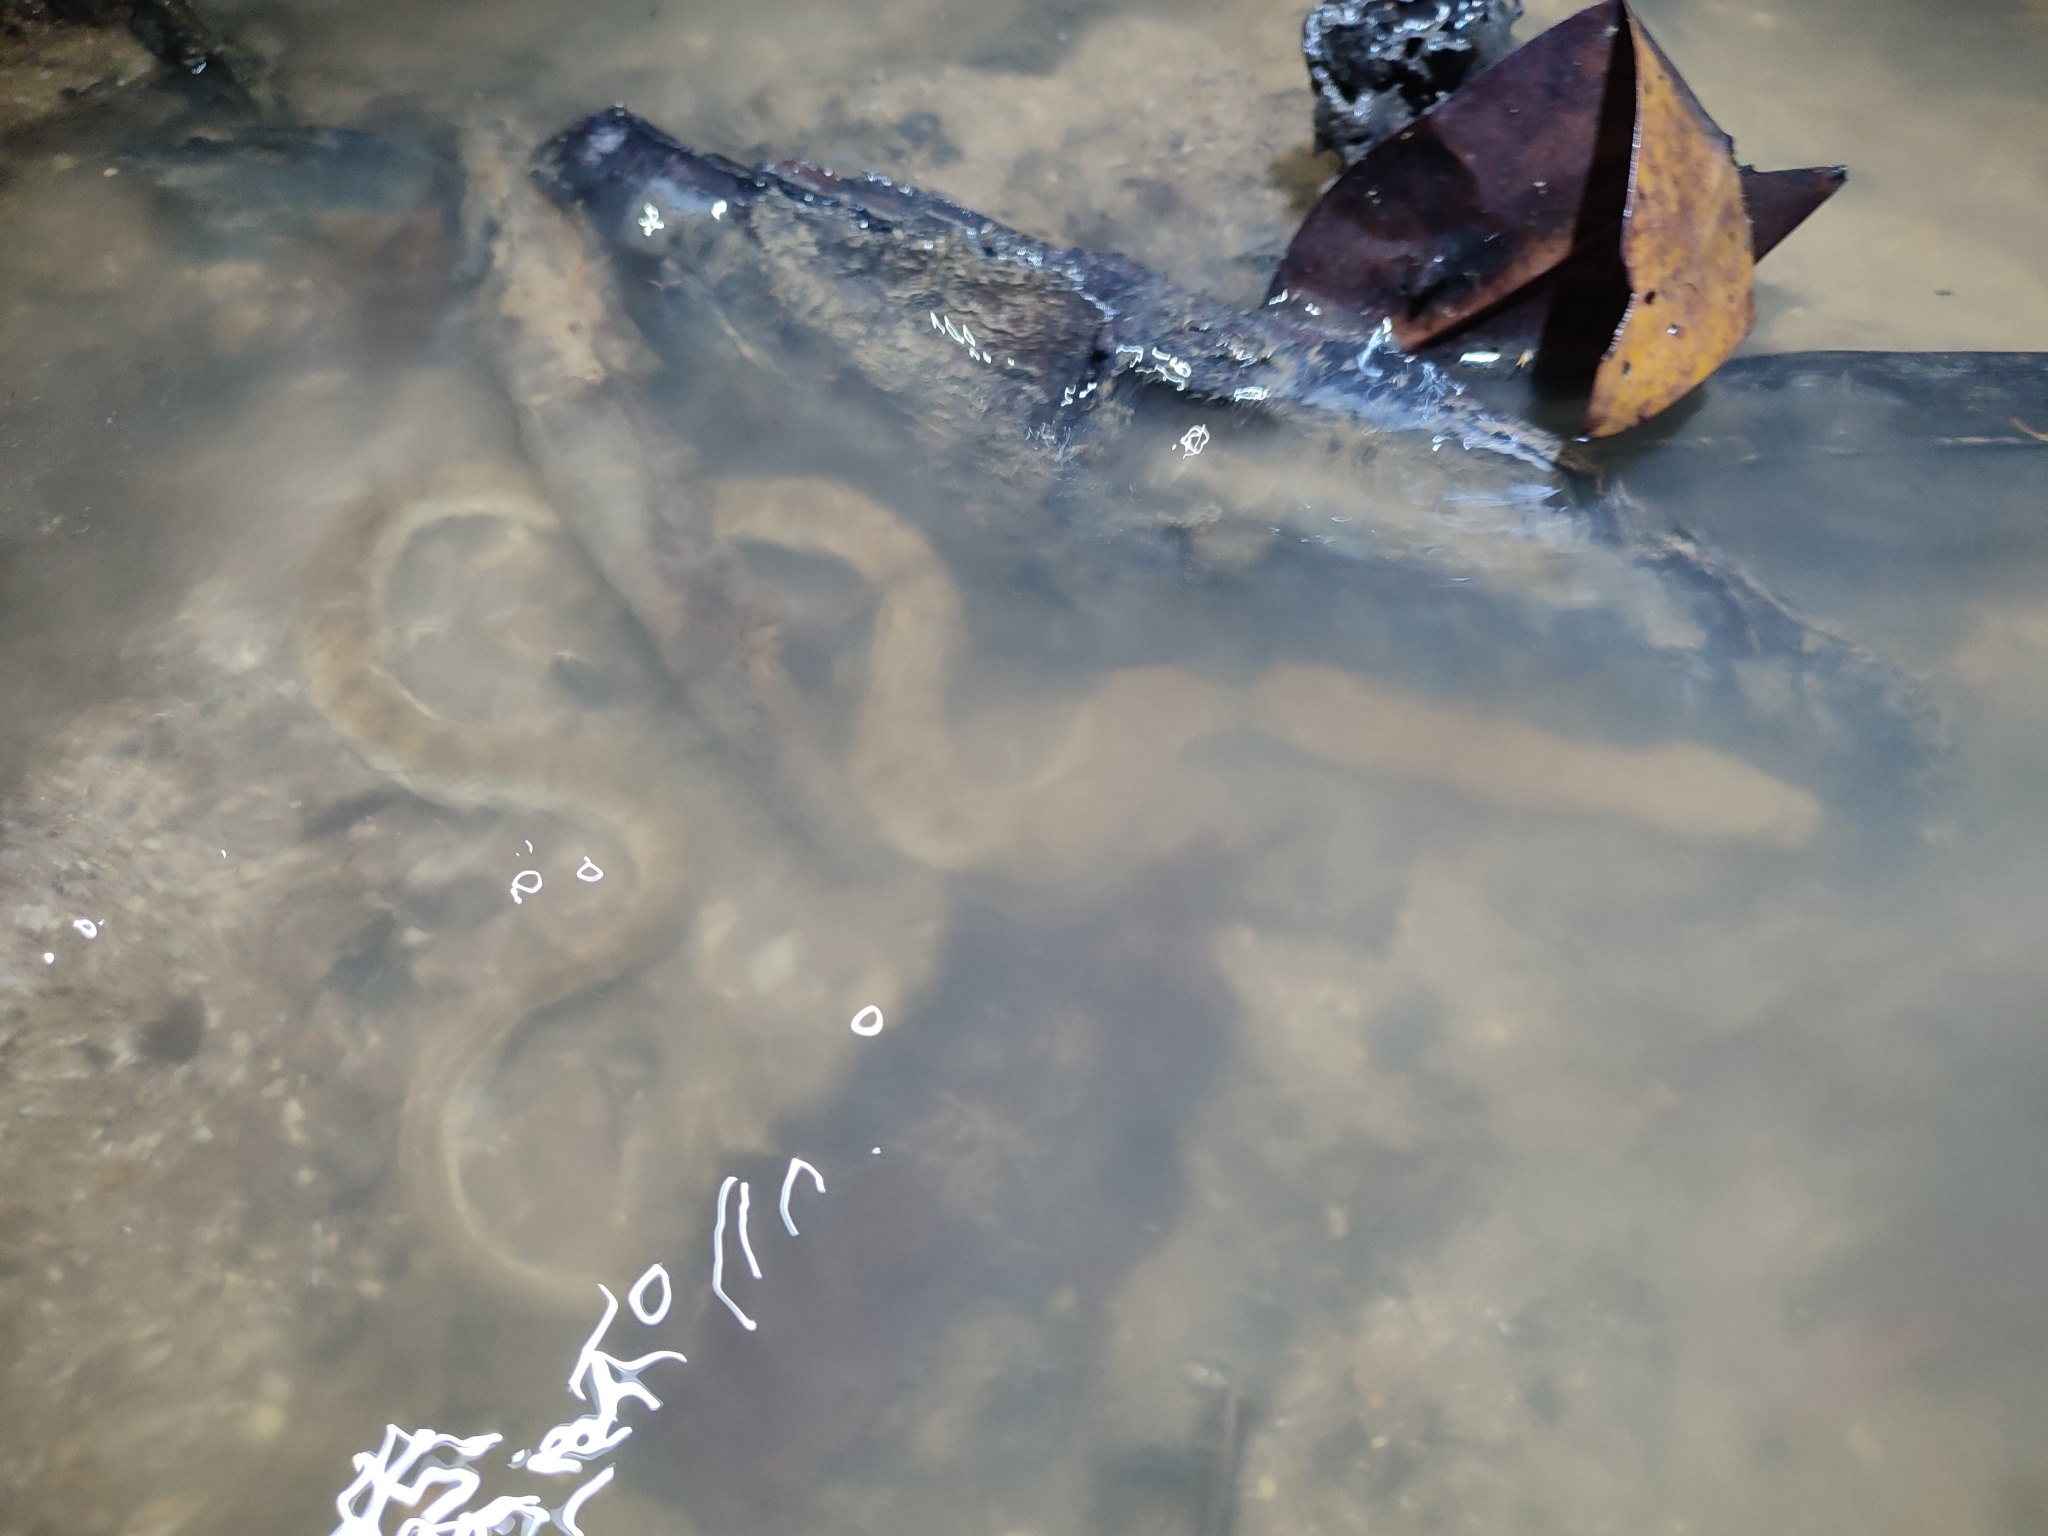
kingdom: Animalia
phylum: Chordata
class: Squamata
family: Homalopsidae
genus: Cerberus
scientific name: Cerberus schneiderii
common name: Southeast asian bockadam
